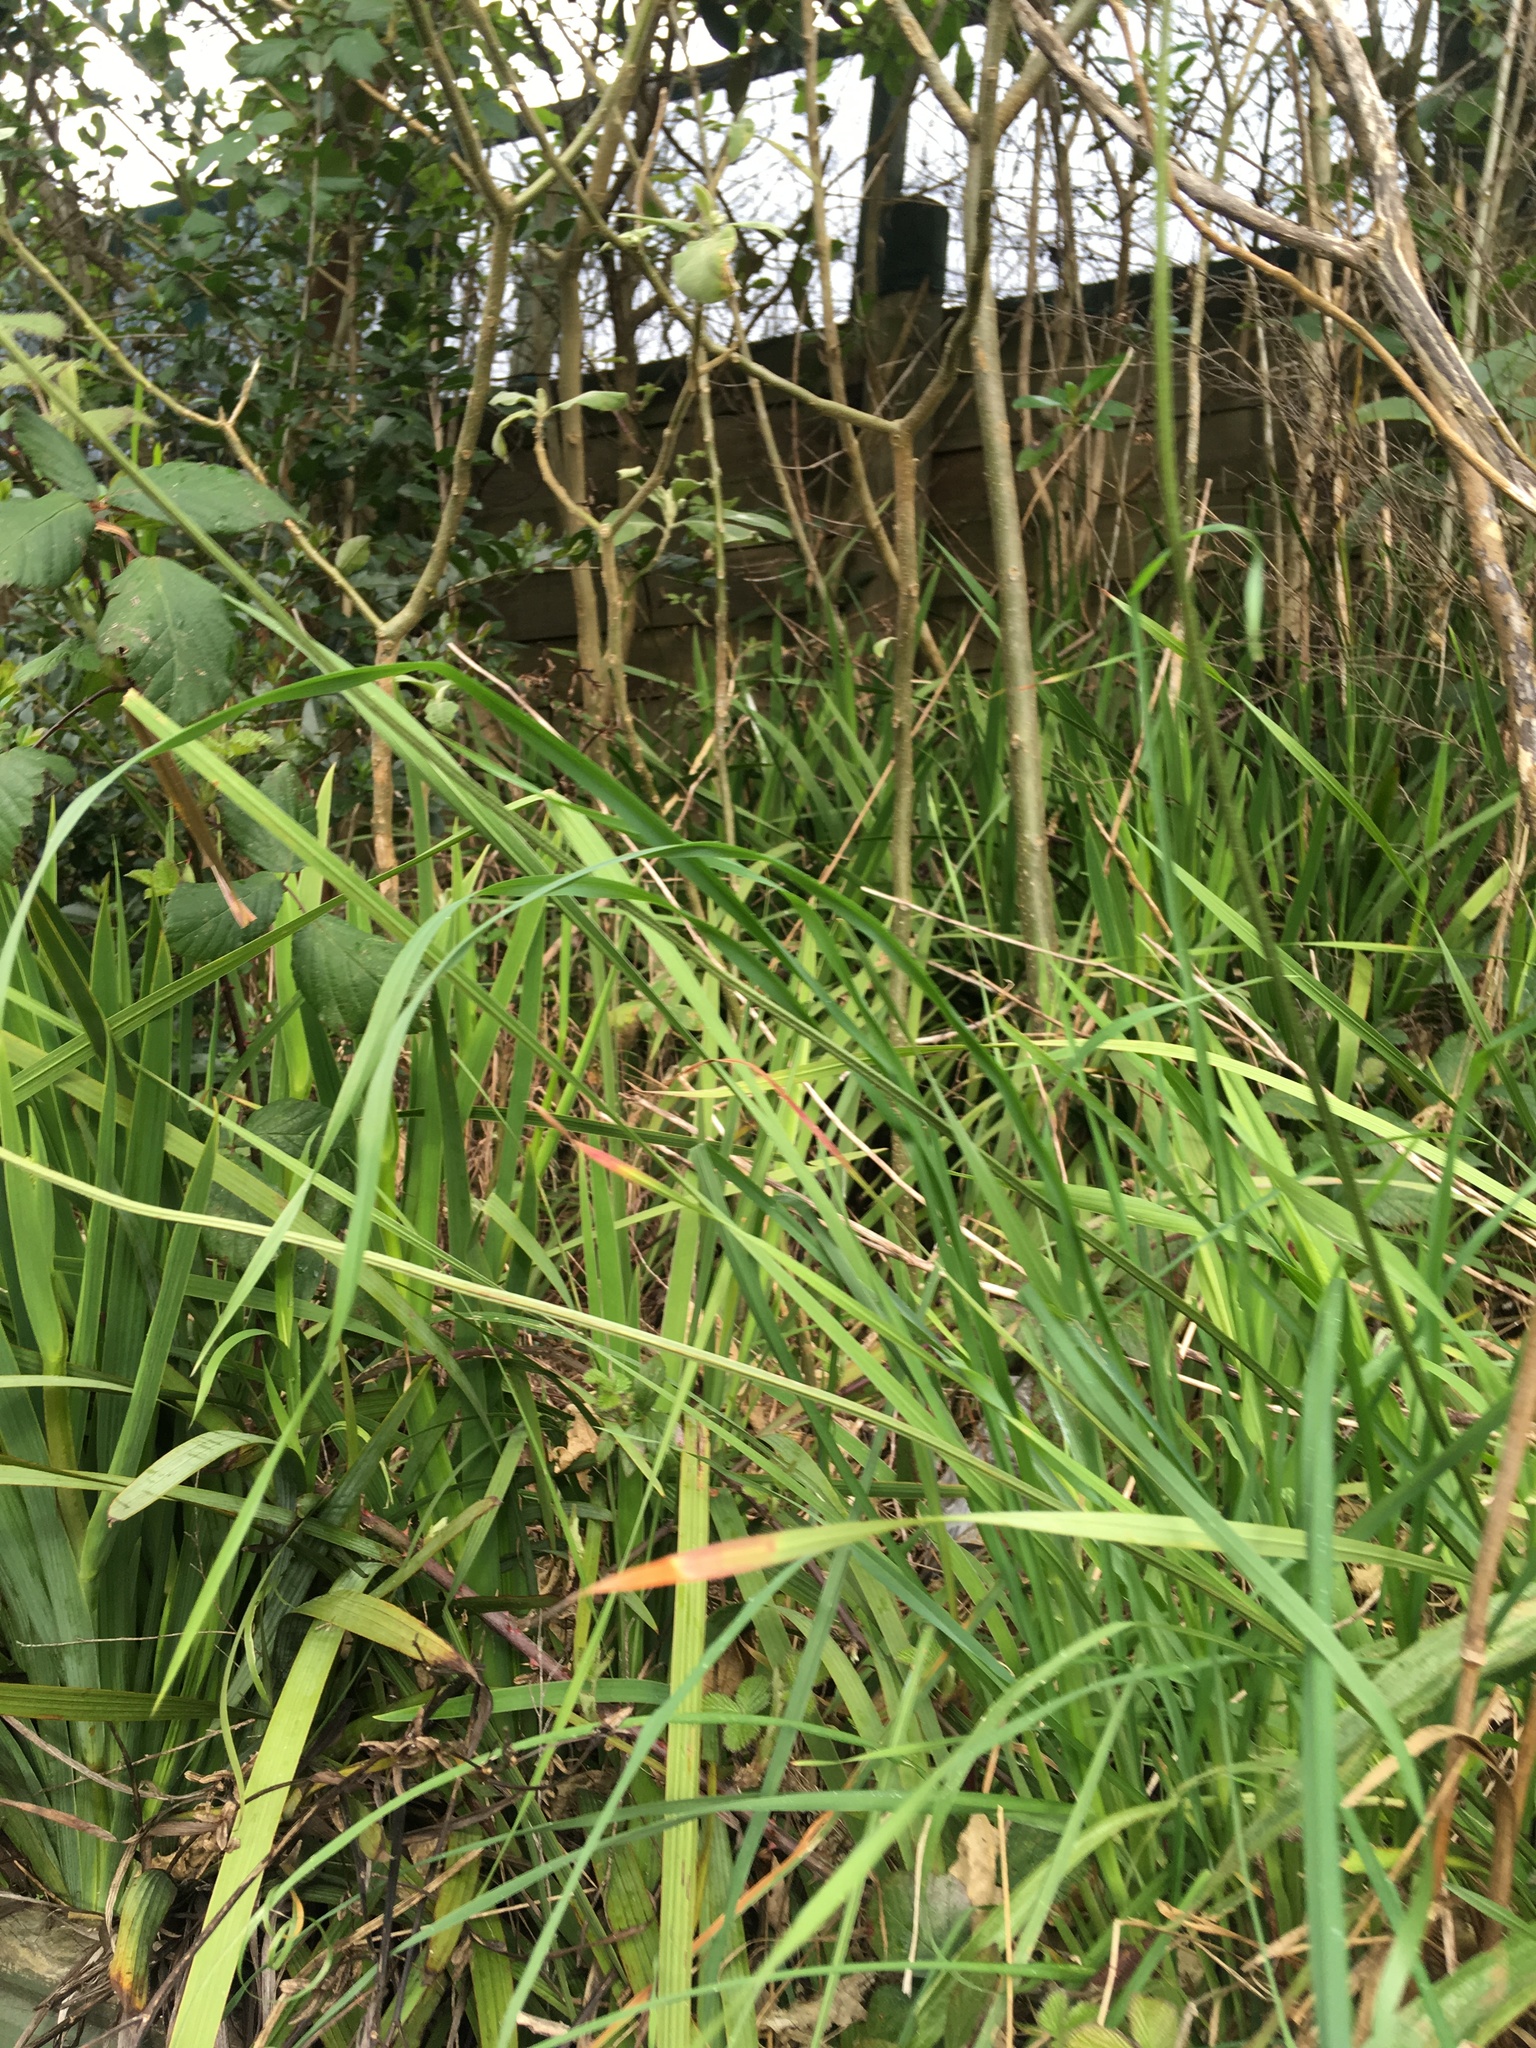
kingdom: Plantae
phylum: Tracheophyta
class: Magnoliopsida
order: Solanales
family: Solanaceae
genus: Solanum
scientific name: Solanum mauritianum
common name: Earleaf nightshade
